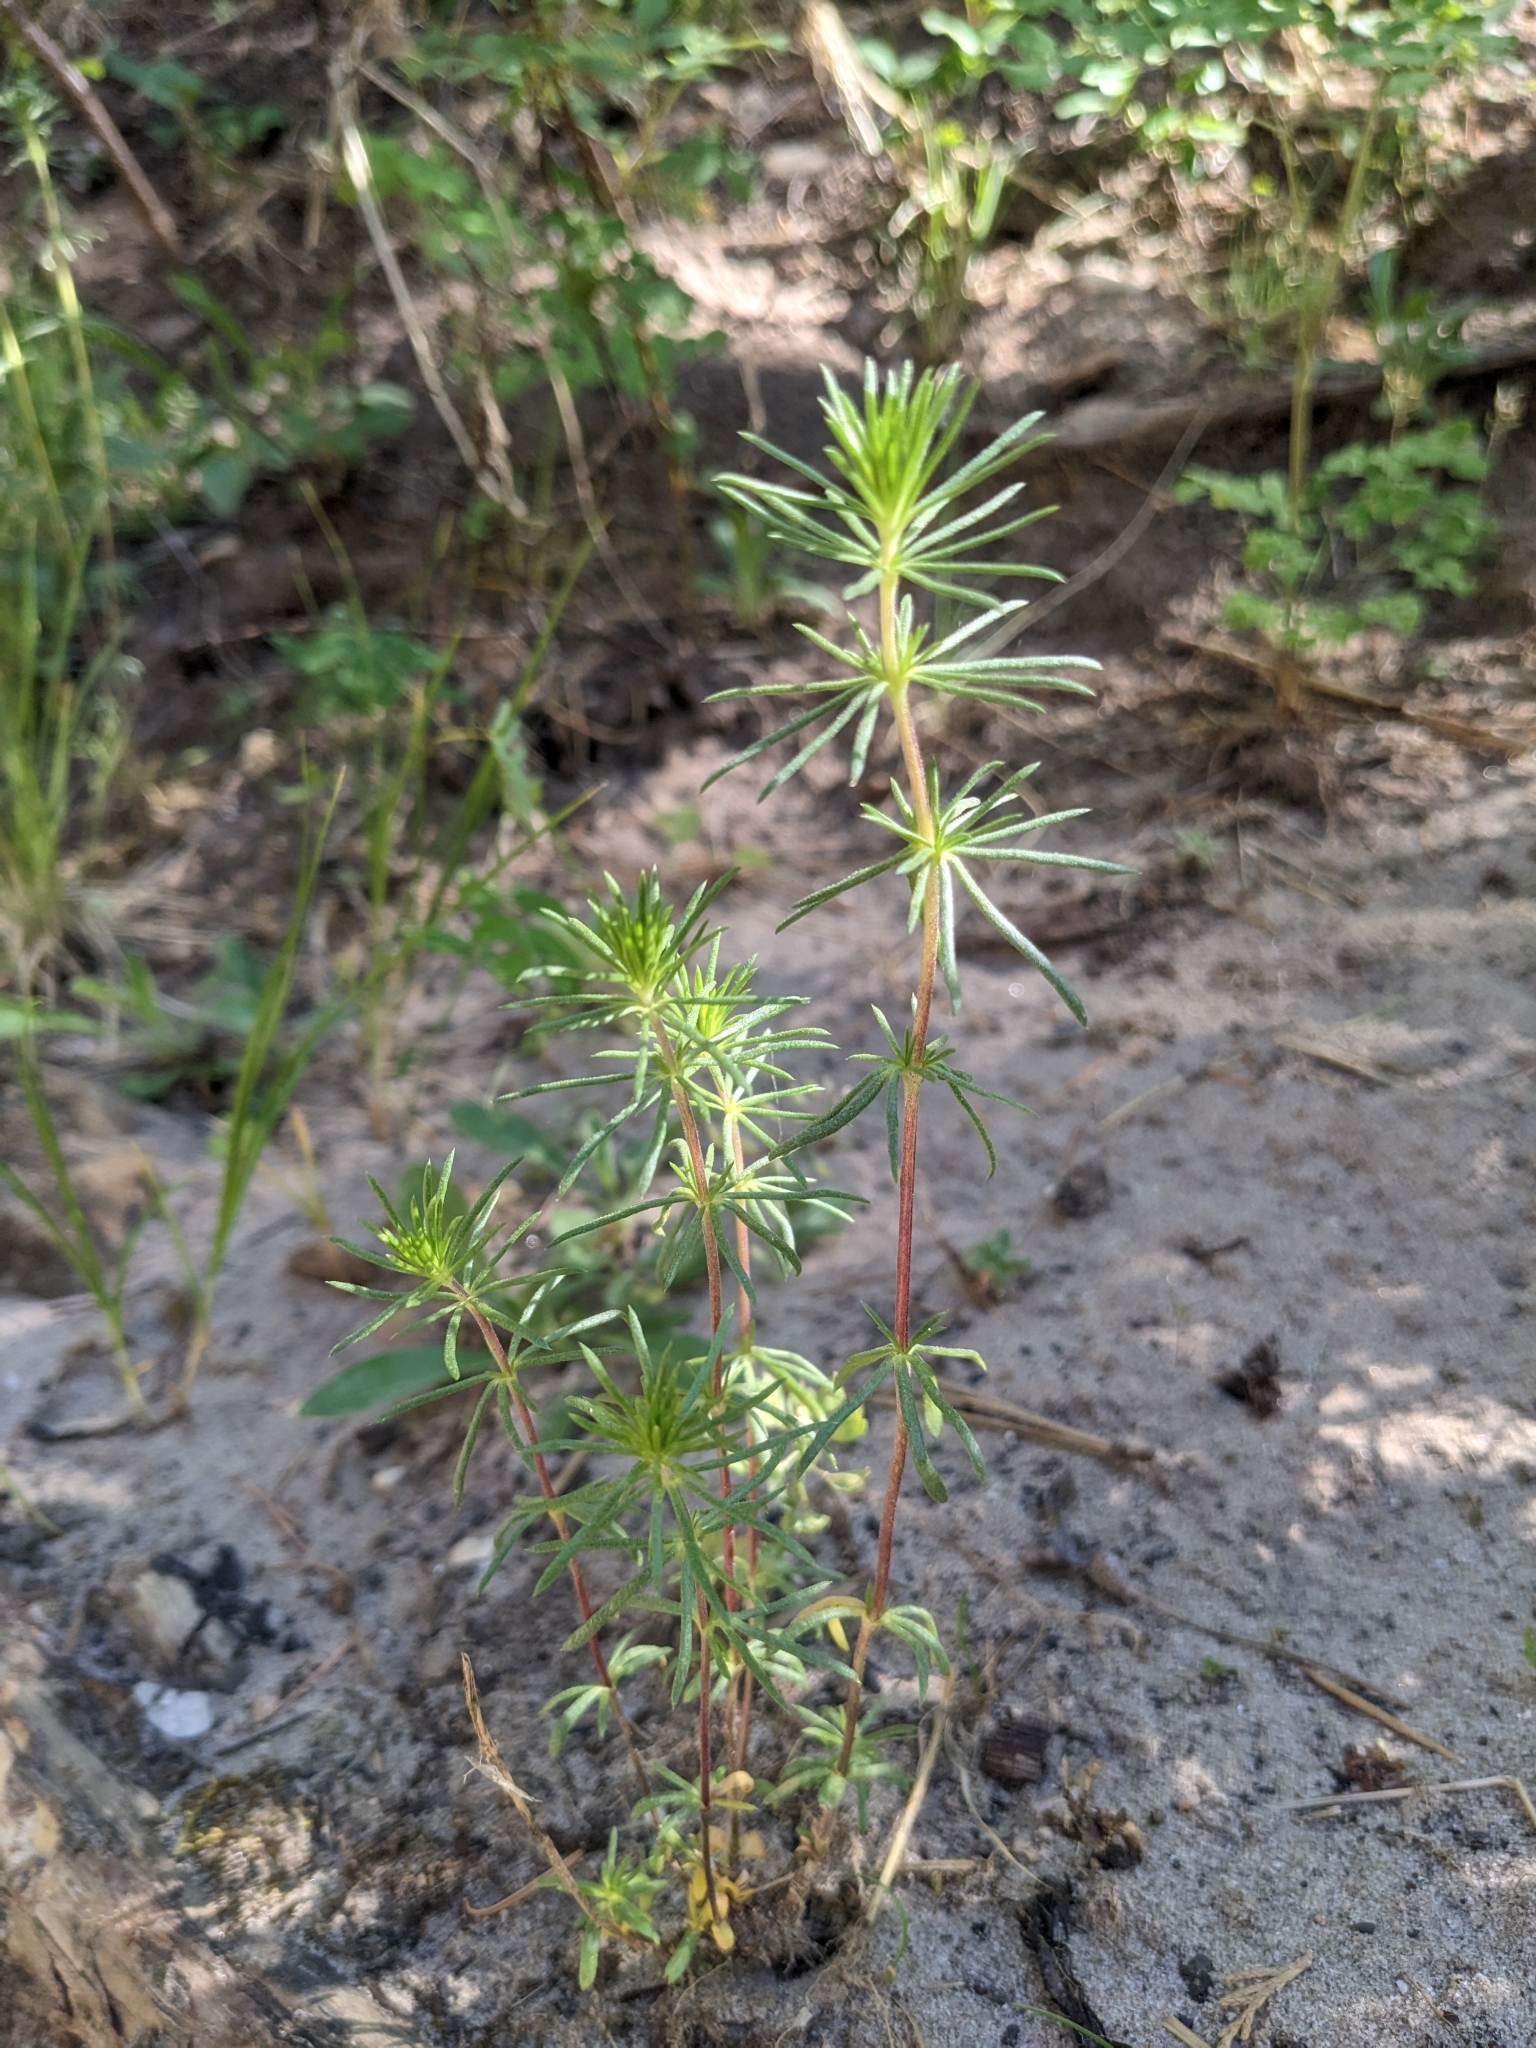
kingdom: Plantae
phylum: Tracheophyta
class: Magnoliopsida
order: Ericales
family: Polemoniaceae
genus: Leptosiphon
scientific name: Leptosiphon nuttallii
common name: Nuttall's linanthus
